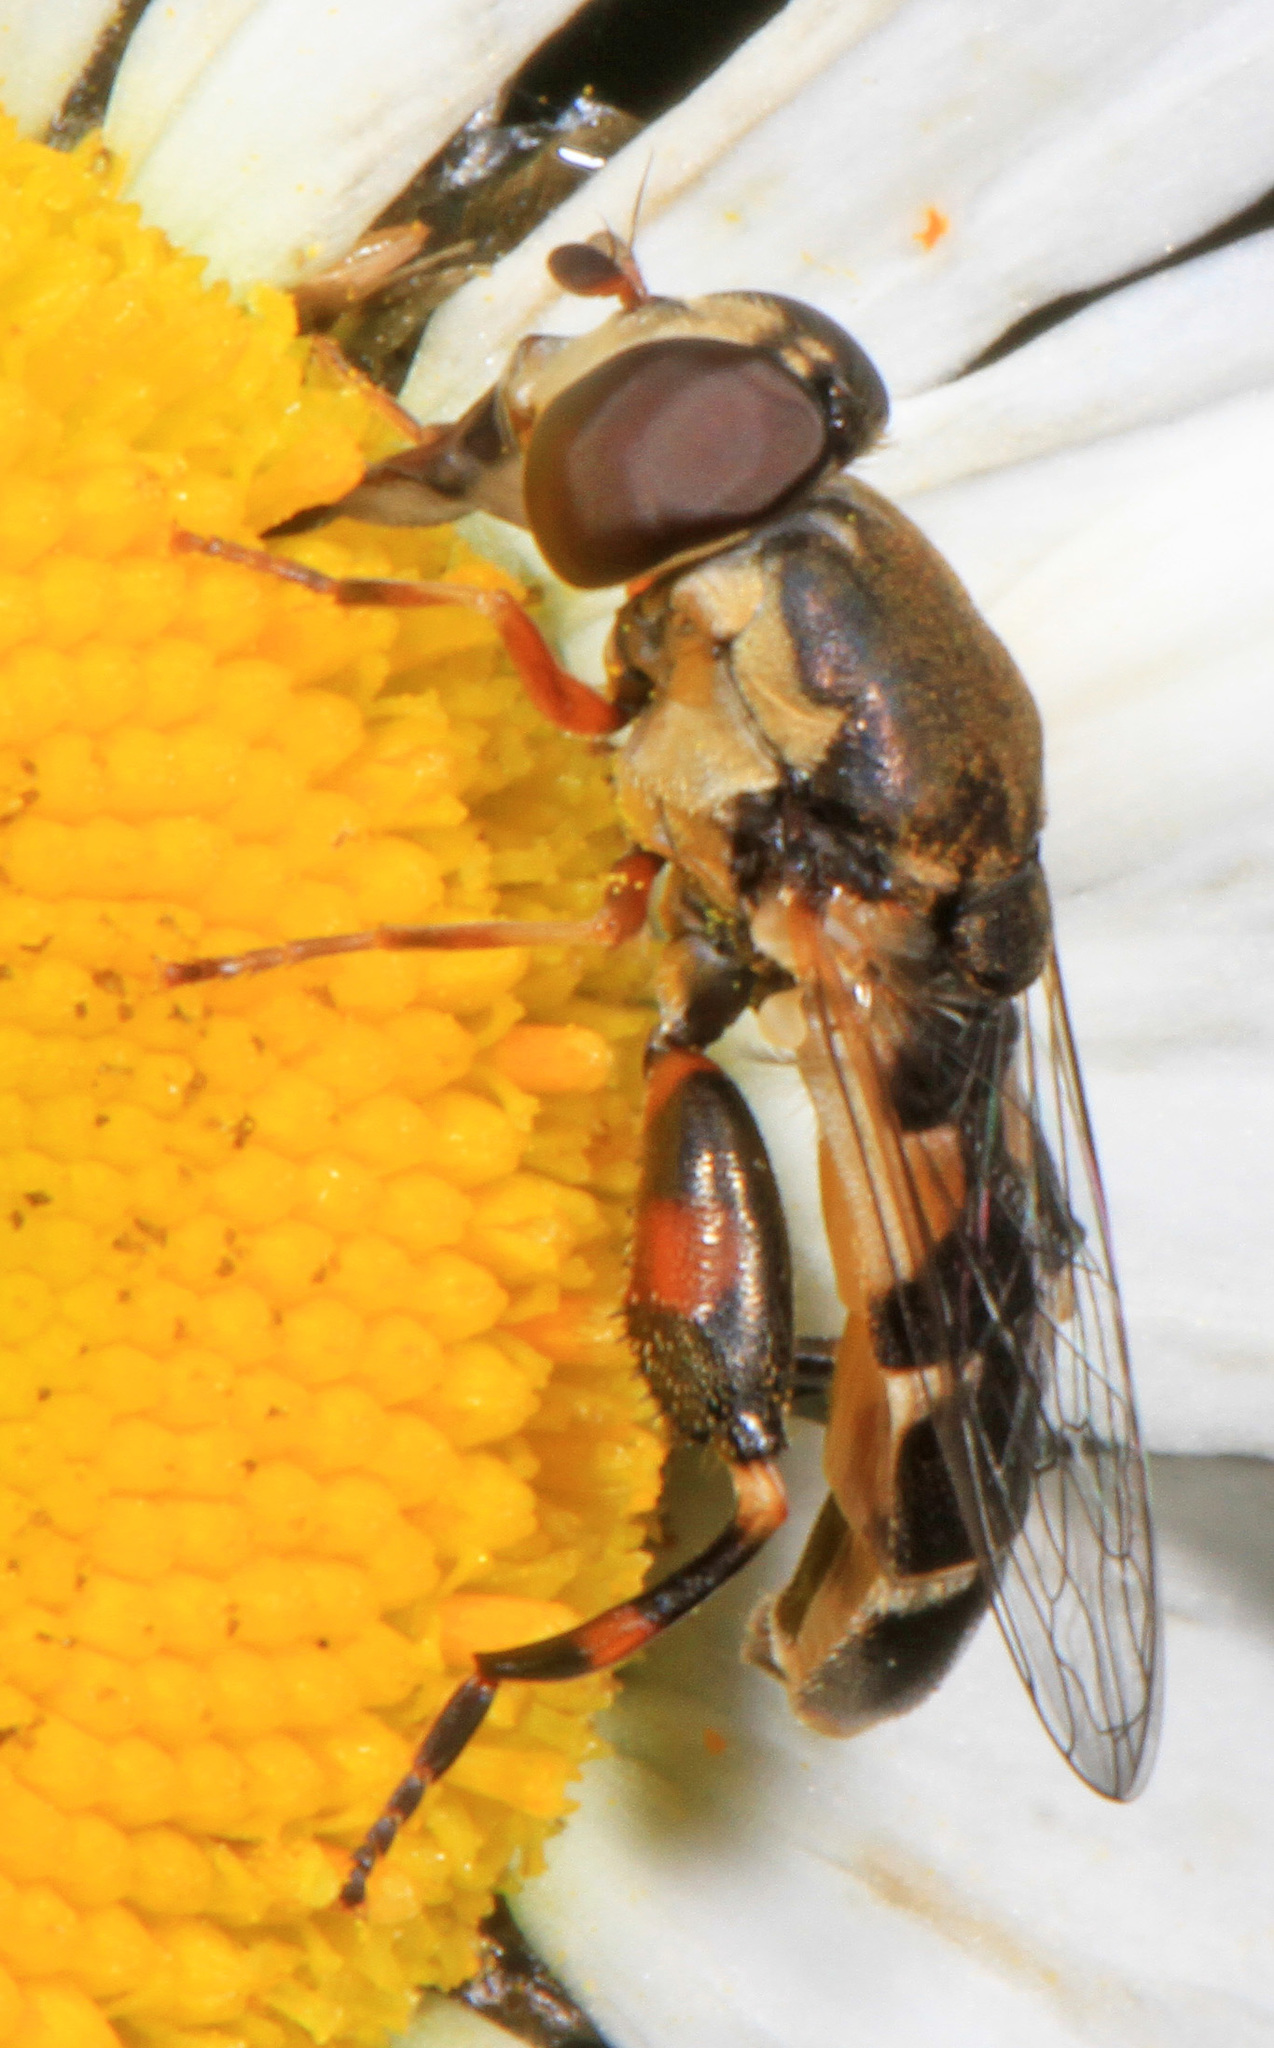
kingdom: Animalia
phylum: Arthropoda
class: Insecta
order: Diptera
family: Syrphidae
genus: Syritta
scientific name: Syritta pipiens
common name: Hover fly
